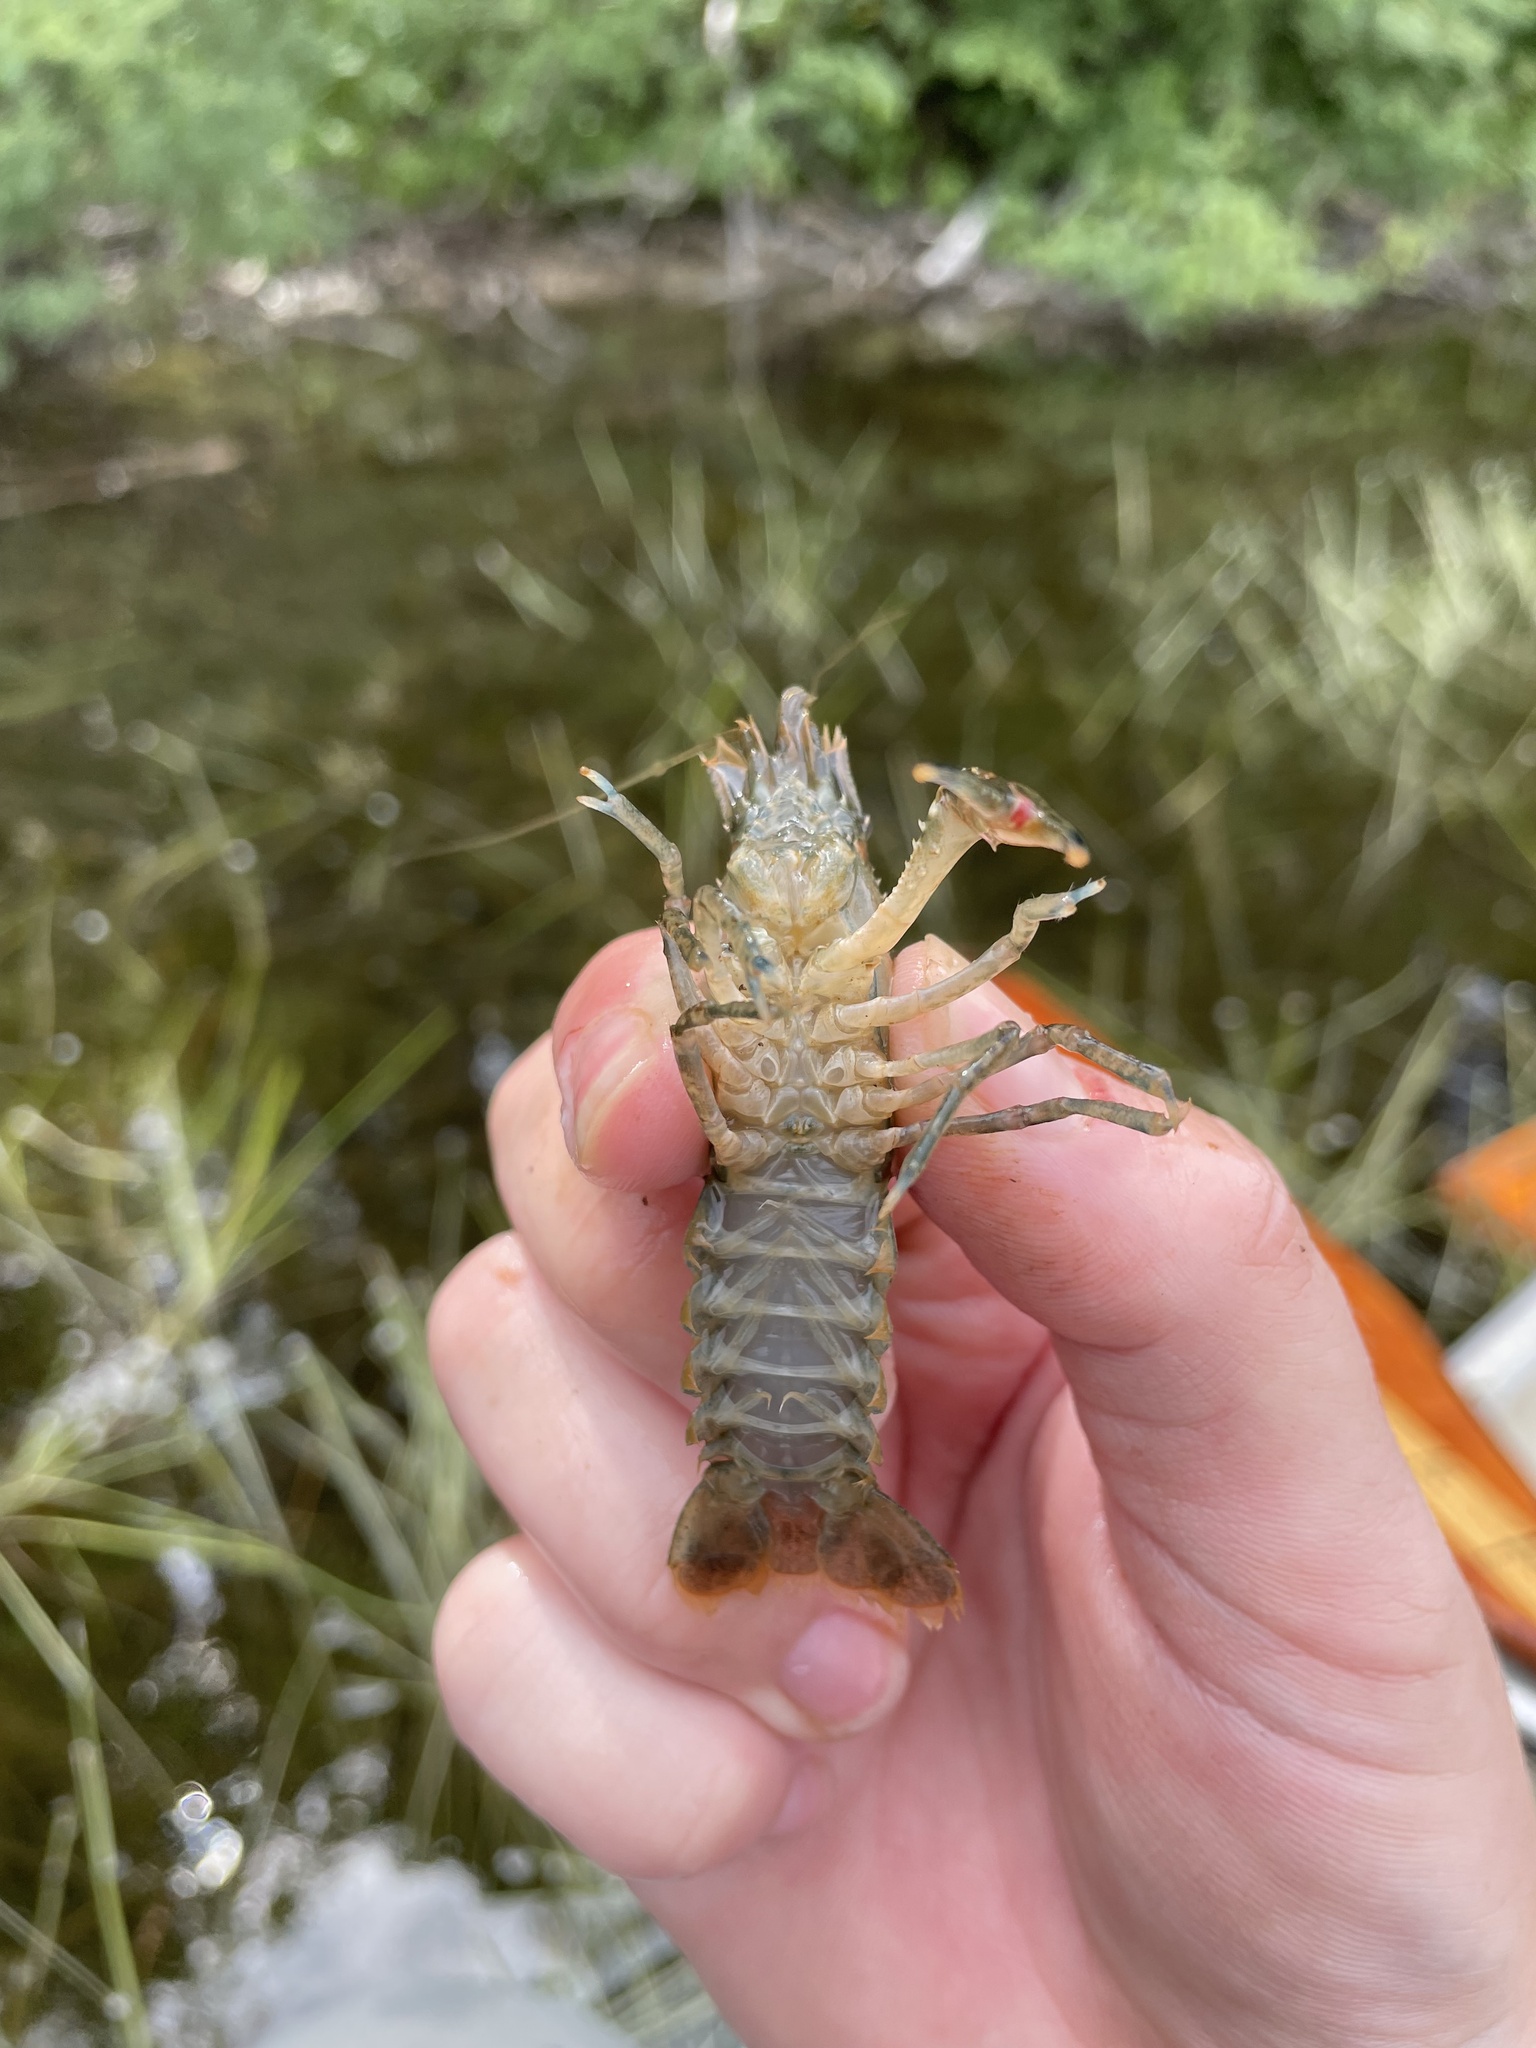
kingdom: Animalia
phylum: Arthropoda
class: Malacostraca
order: Decapoda
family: Cambaridae
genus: Faxonius
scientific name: Faxonius limosus
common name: American crayfish
